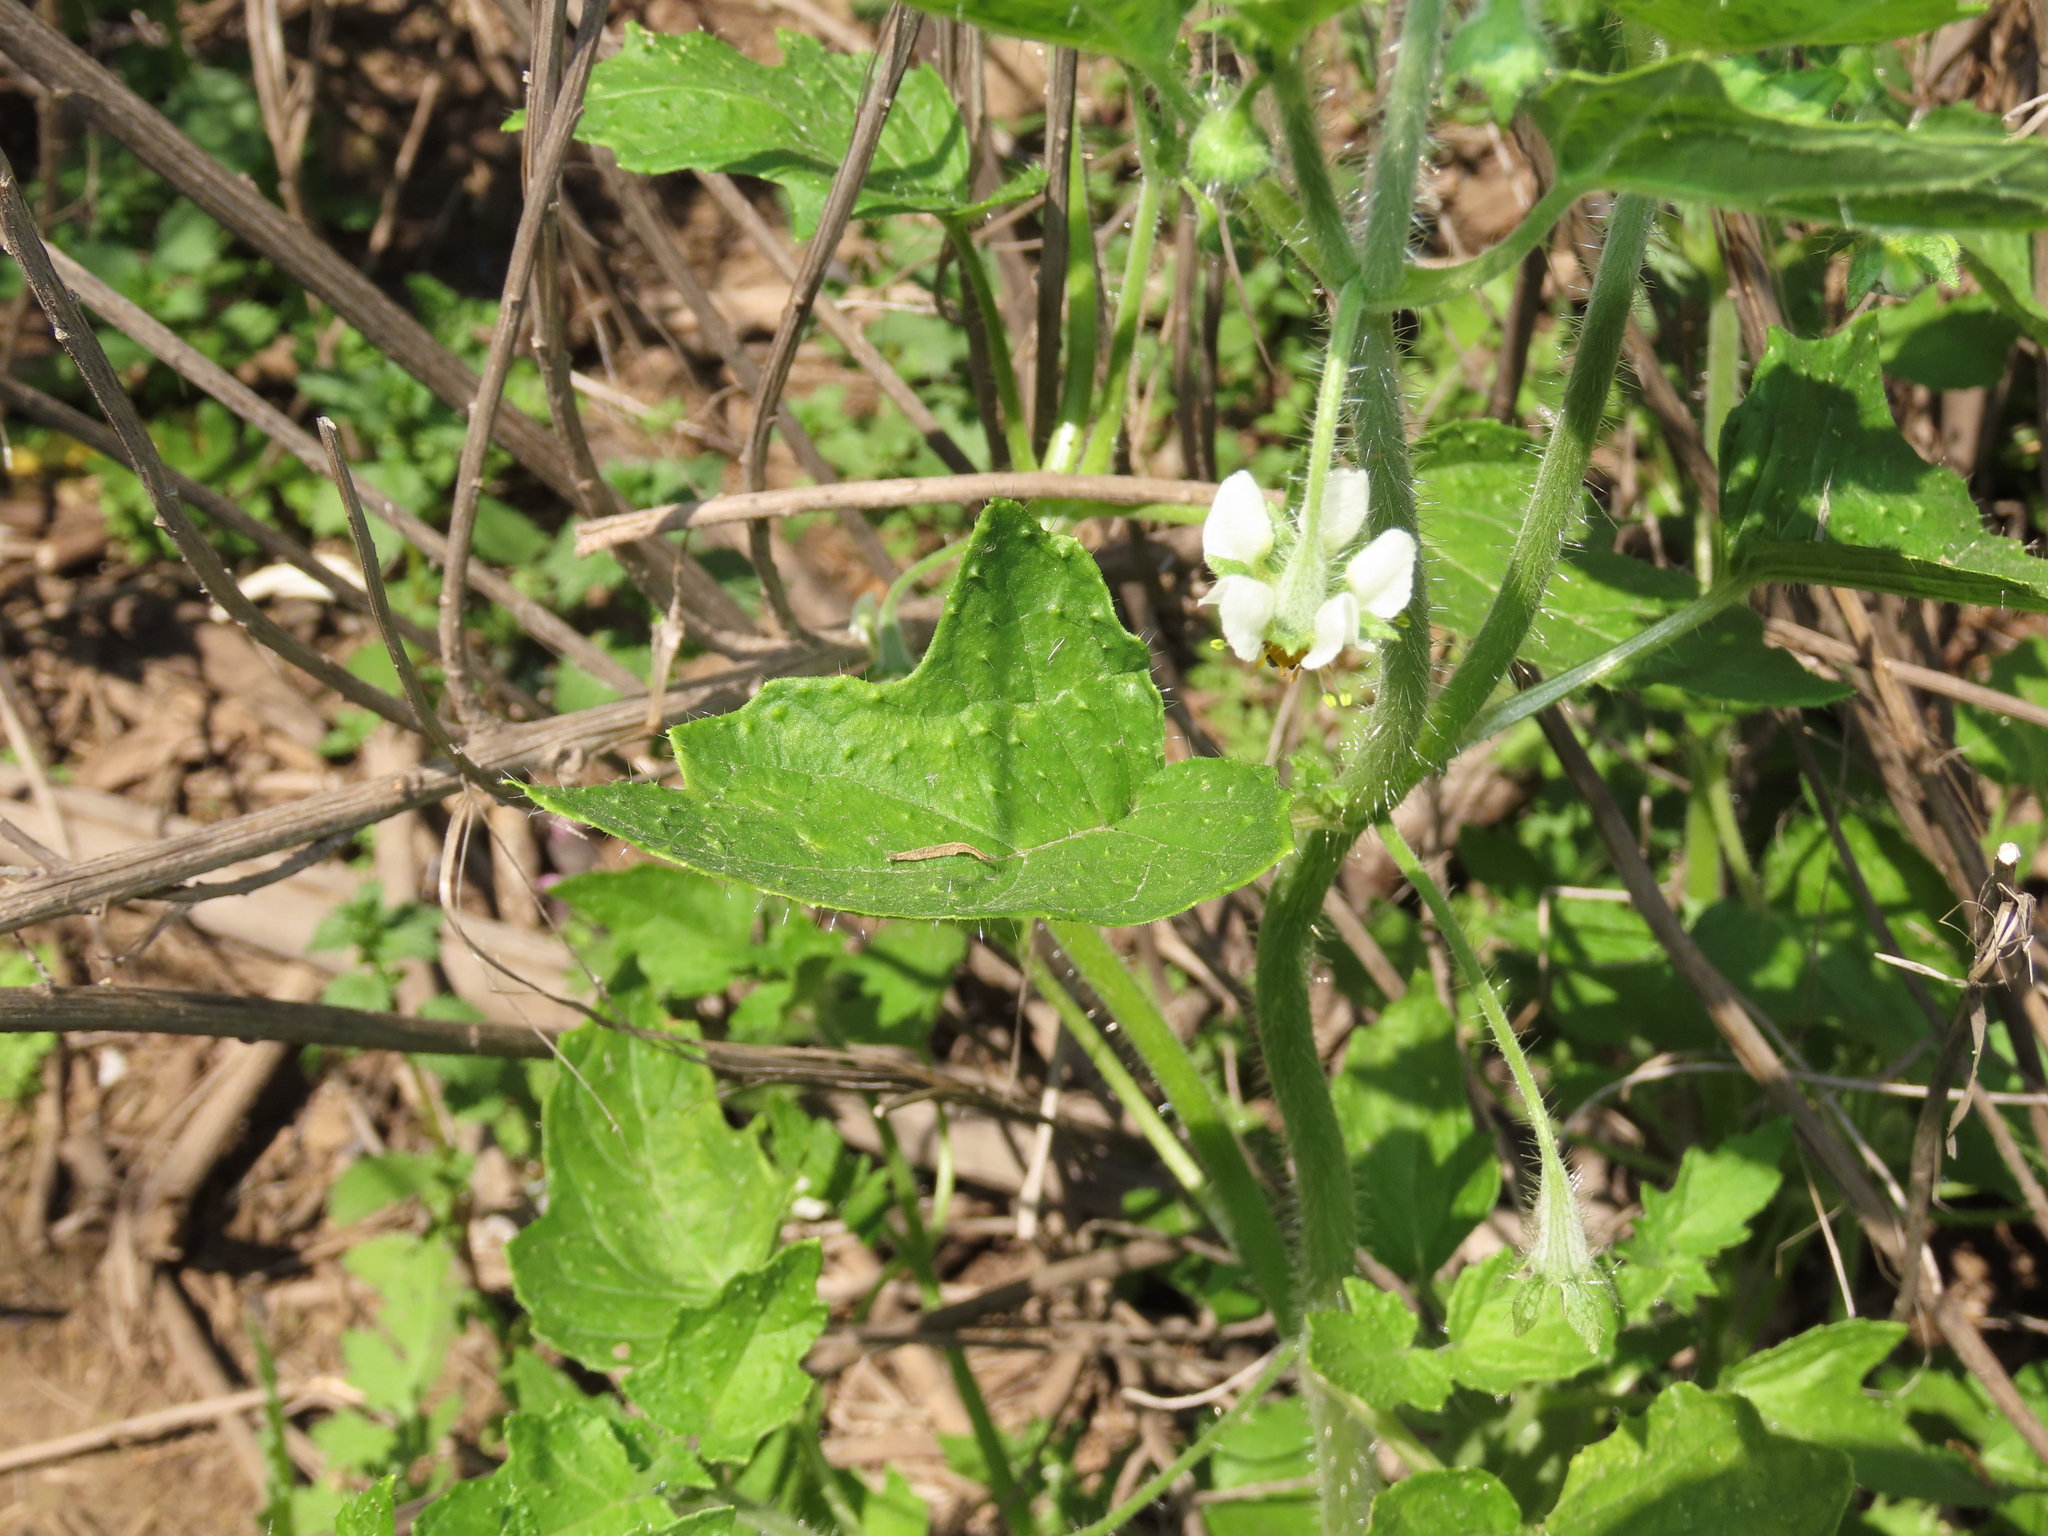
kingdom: Plantae
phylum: Tracheophyta
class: Magnoliopsida
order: Cornales
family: Loasaceae
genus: Loasa
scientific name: Loasa triloba
